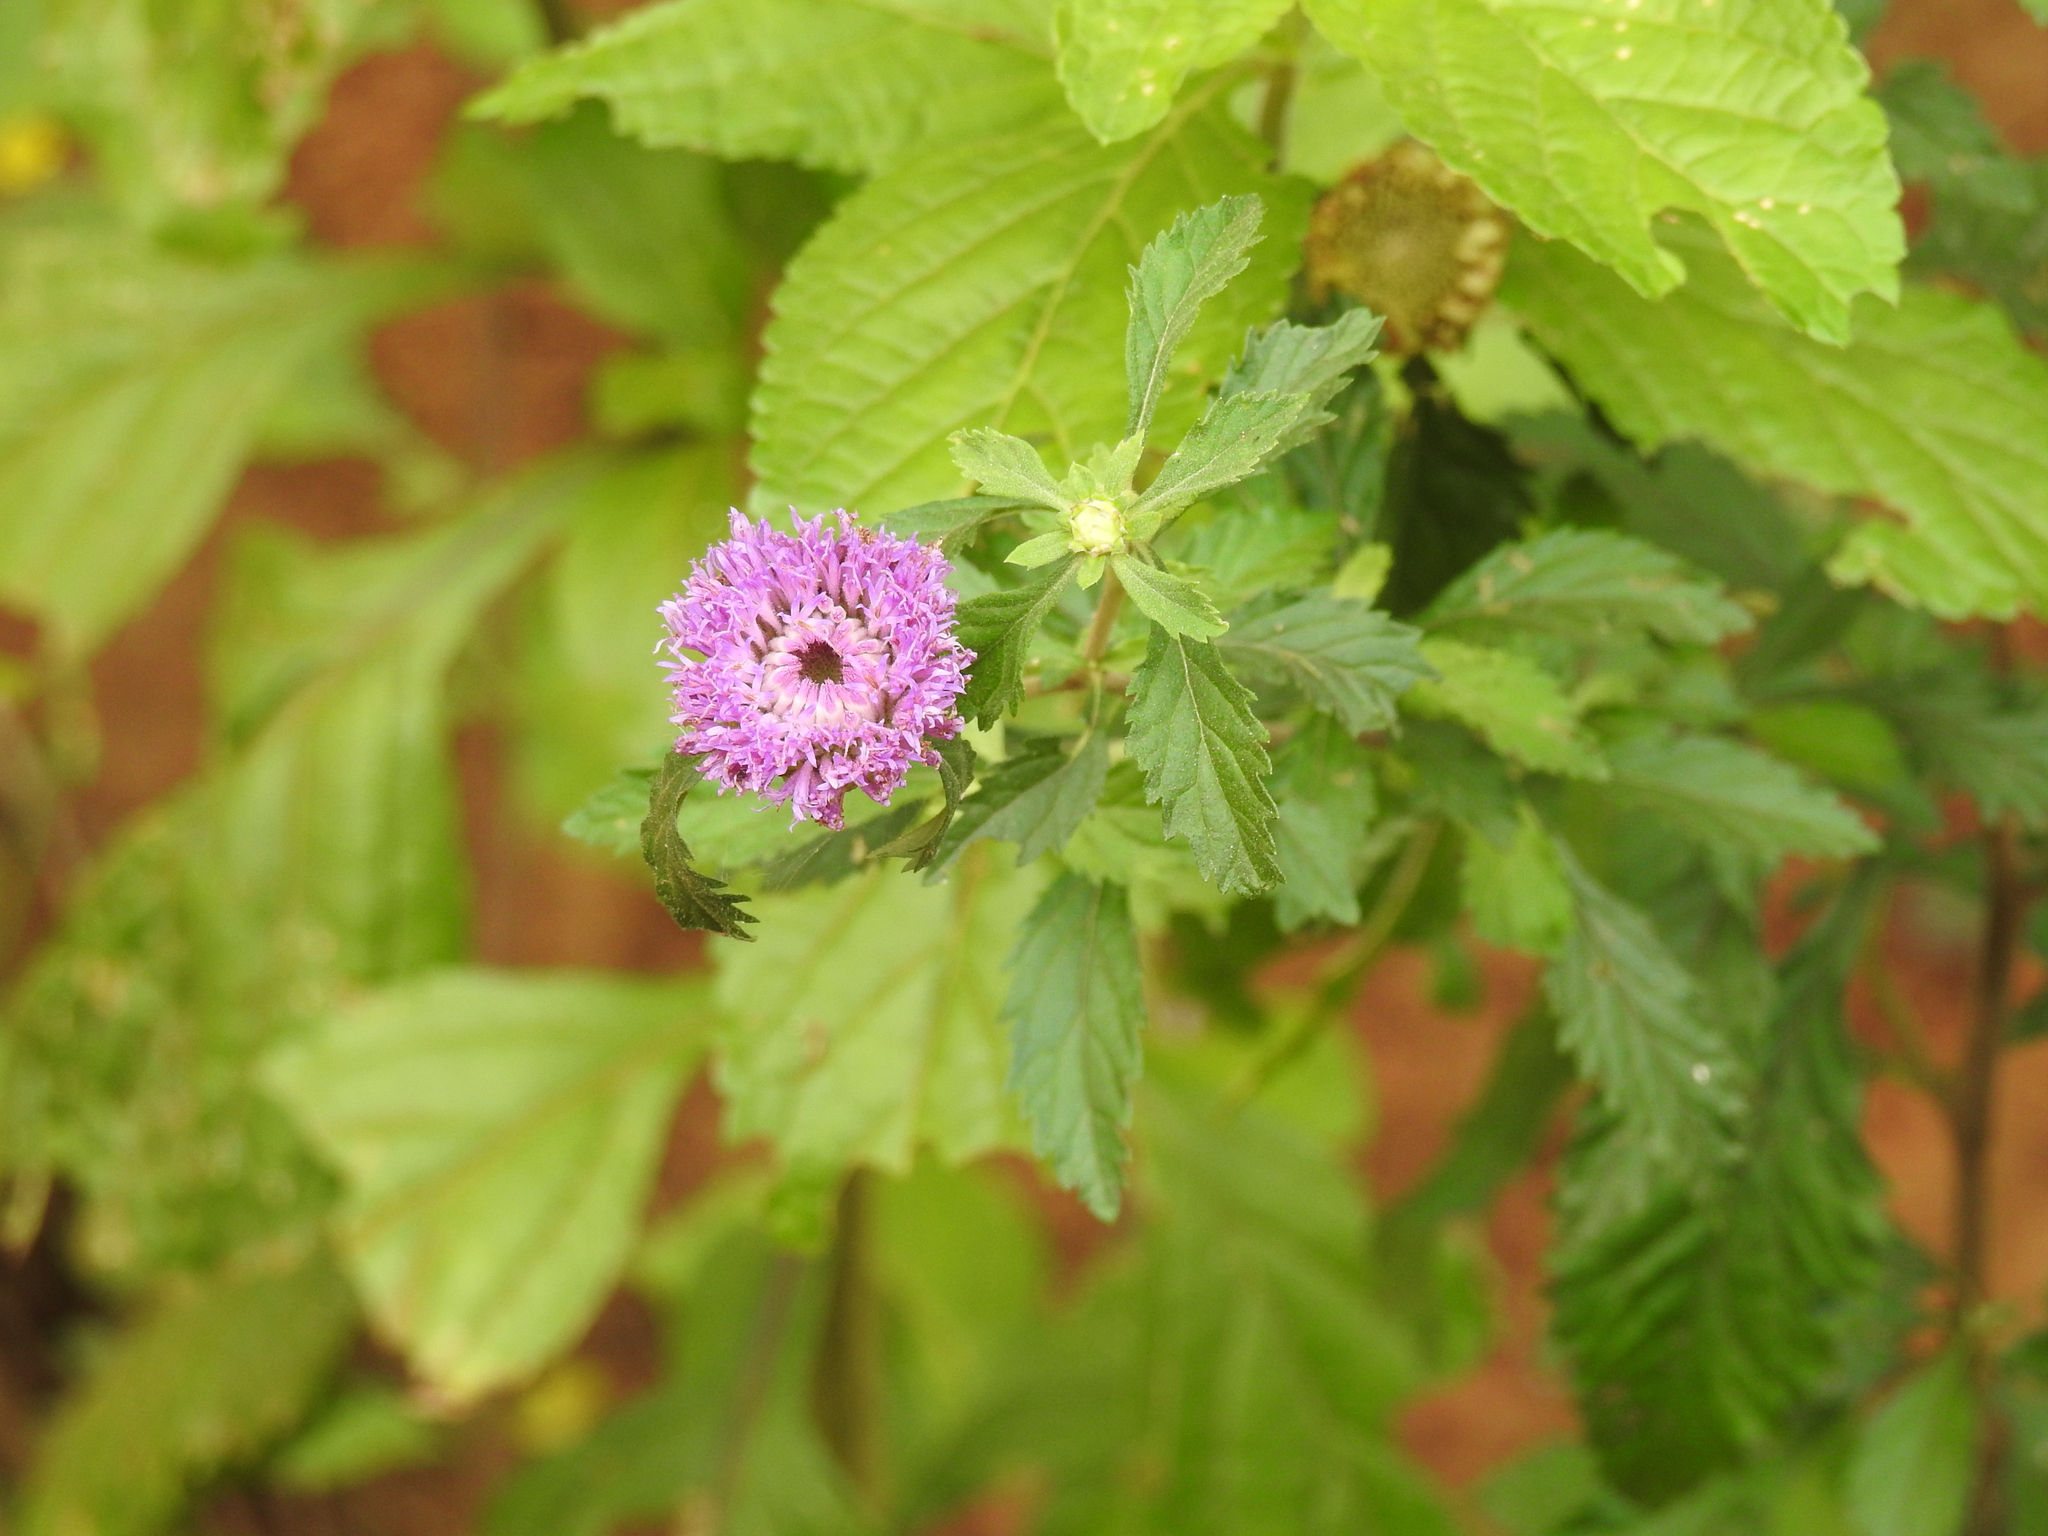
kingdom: Plantae
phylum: Tracheophyta
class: Magnoliopsida
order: Asterales
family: Asteraceae
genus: Centratherum
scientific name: Centratherum punctatum
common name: Larkdaisy
